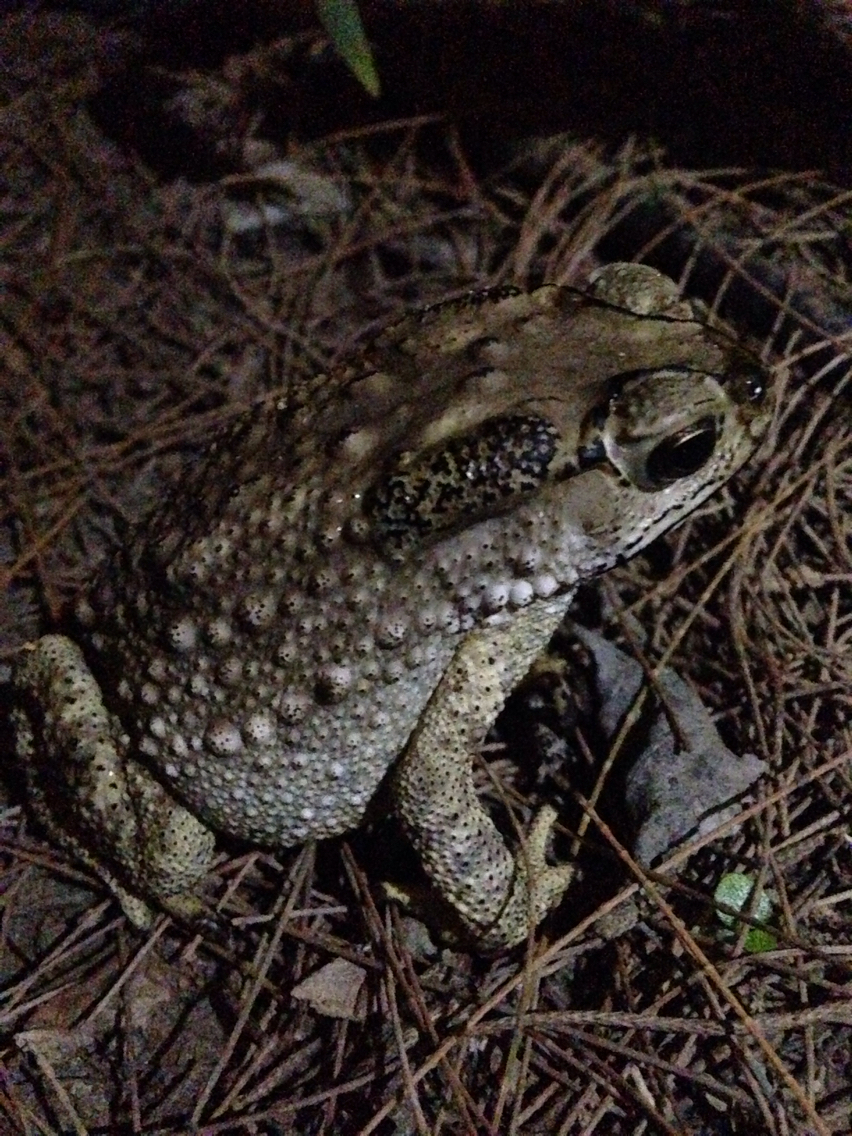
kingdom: Animalia
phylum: Chordata
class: Amphibia
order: Anura
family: Bufonidae
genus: Duttaphrynus
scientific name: Duttaphrynus melanostictus
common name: Common sunda toad
